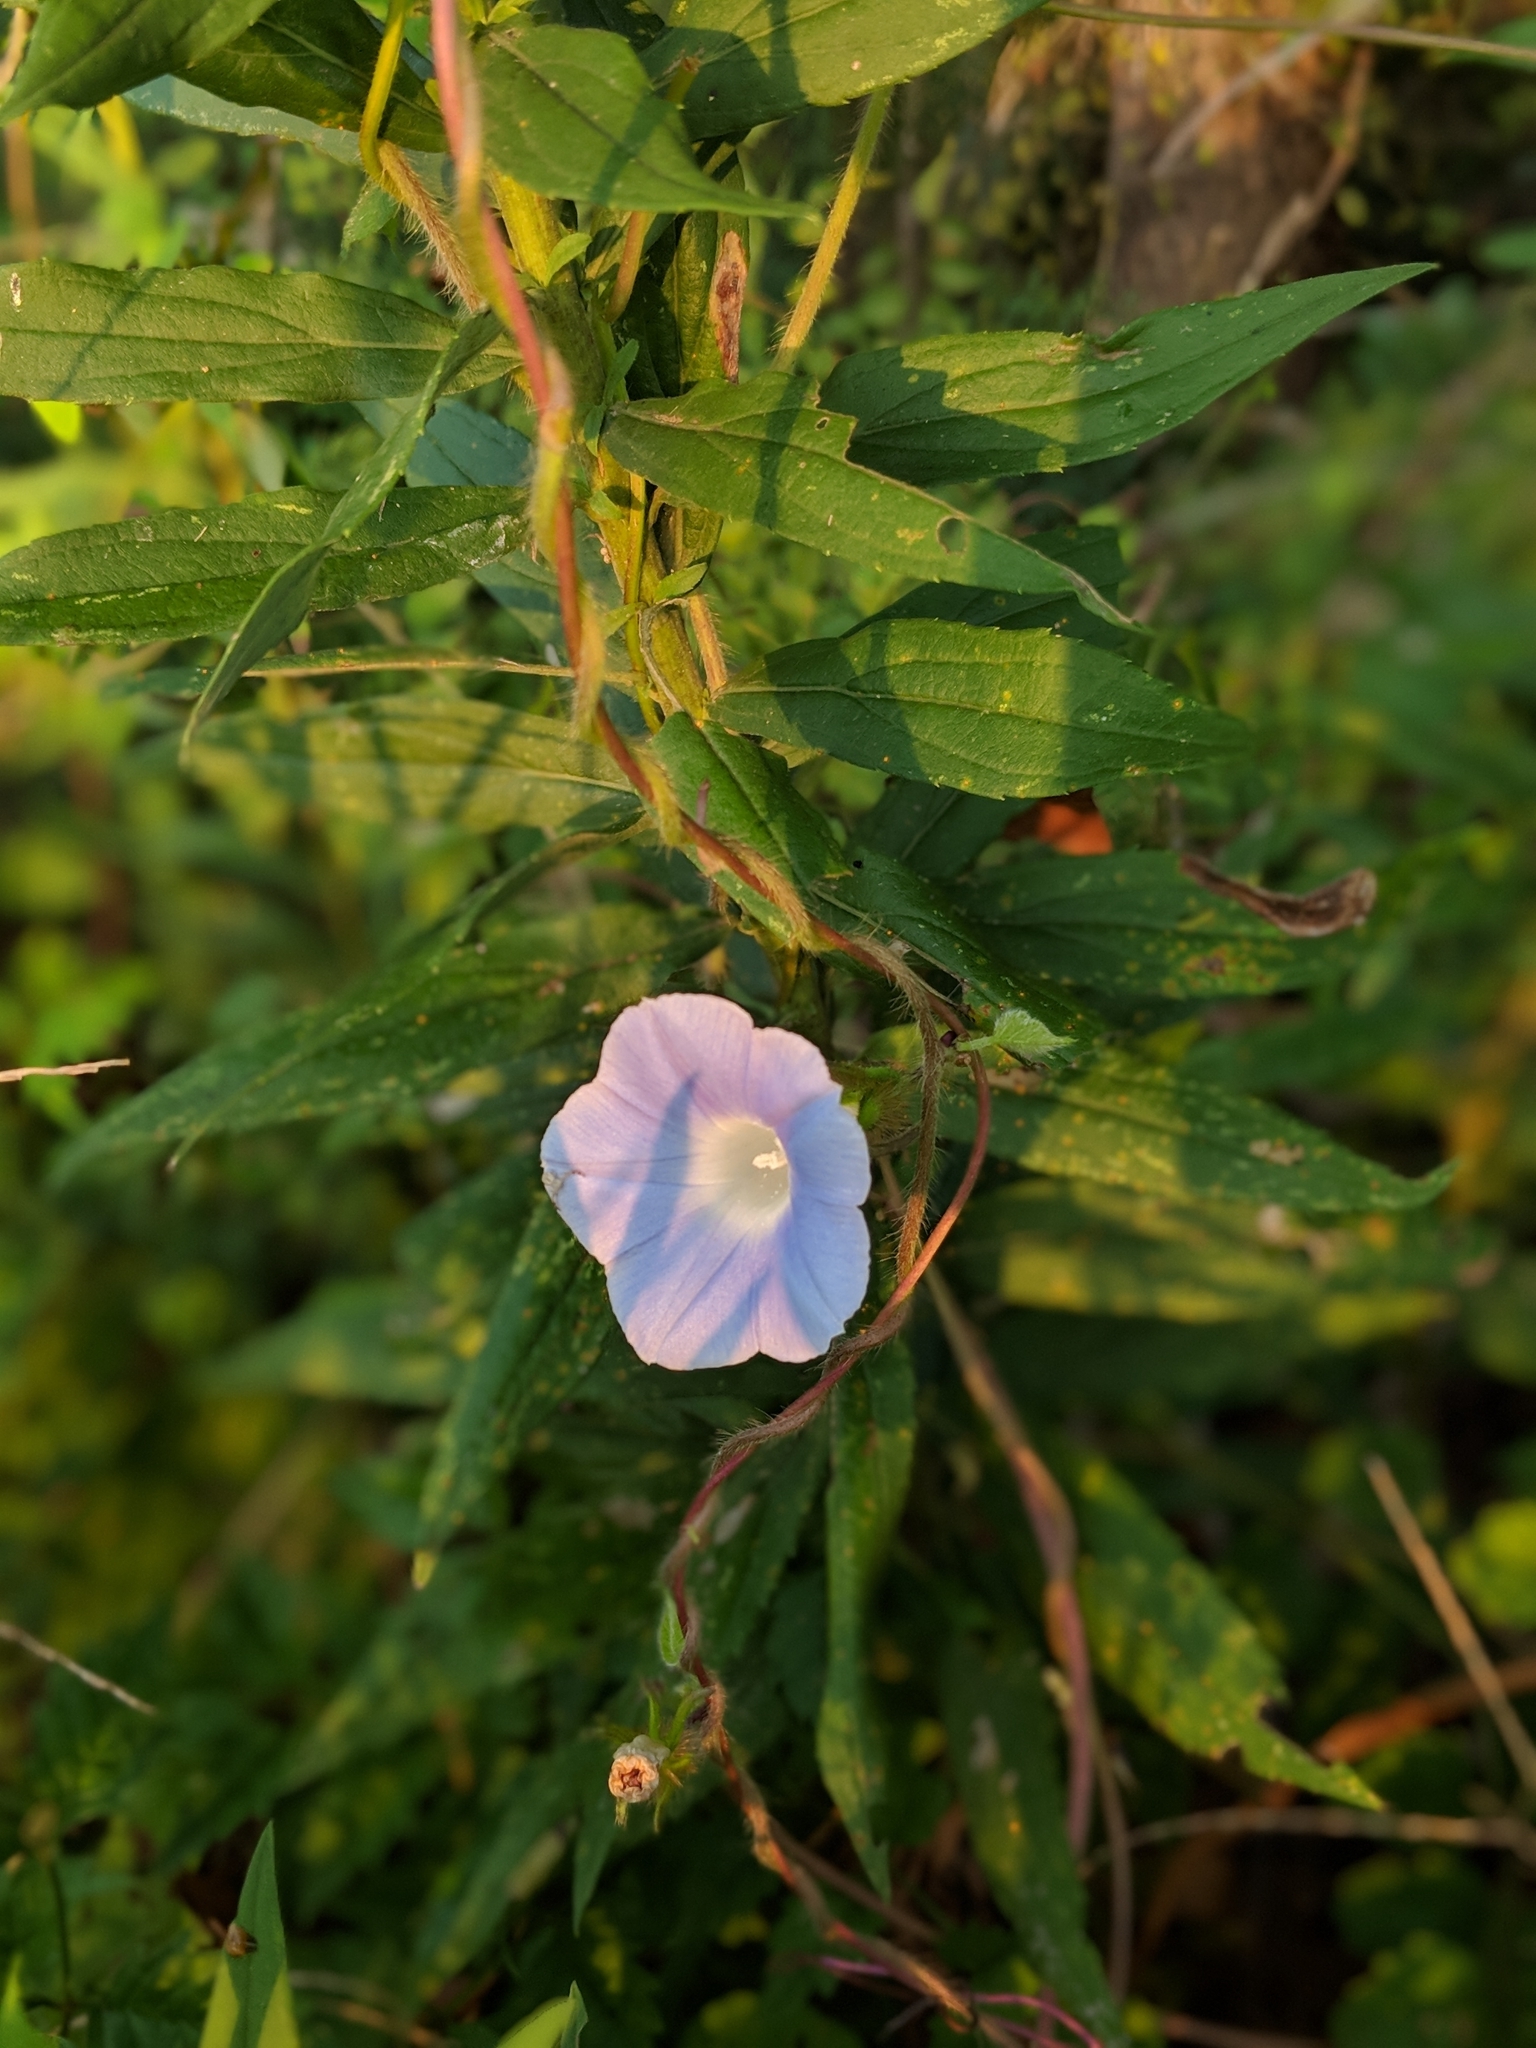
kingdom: Plantae
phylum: Tracheophyta
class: Magnoliopsida
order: Solanales
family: Convolvulaceae
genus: Ipomoea
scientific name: Ipomoea hederacea
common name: Ivy-leaved morning-glory
